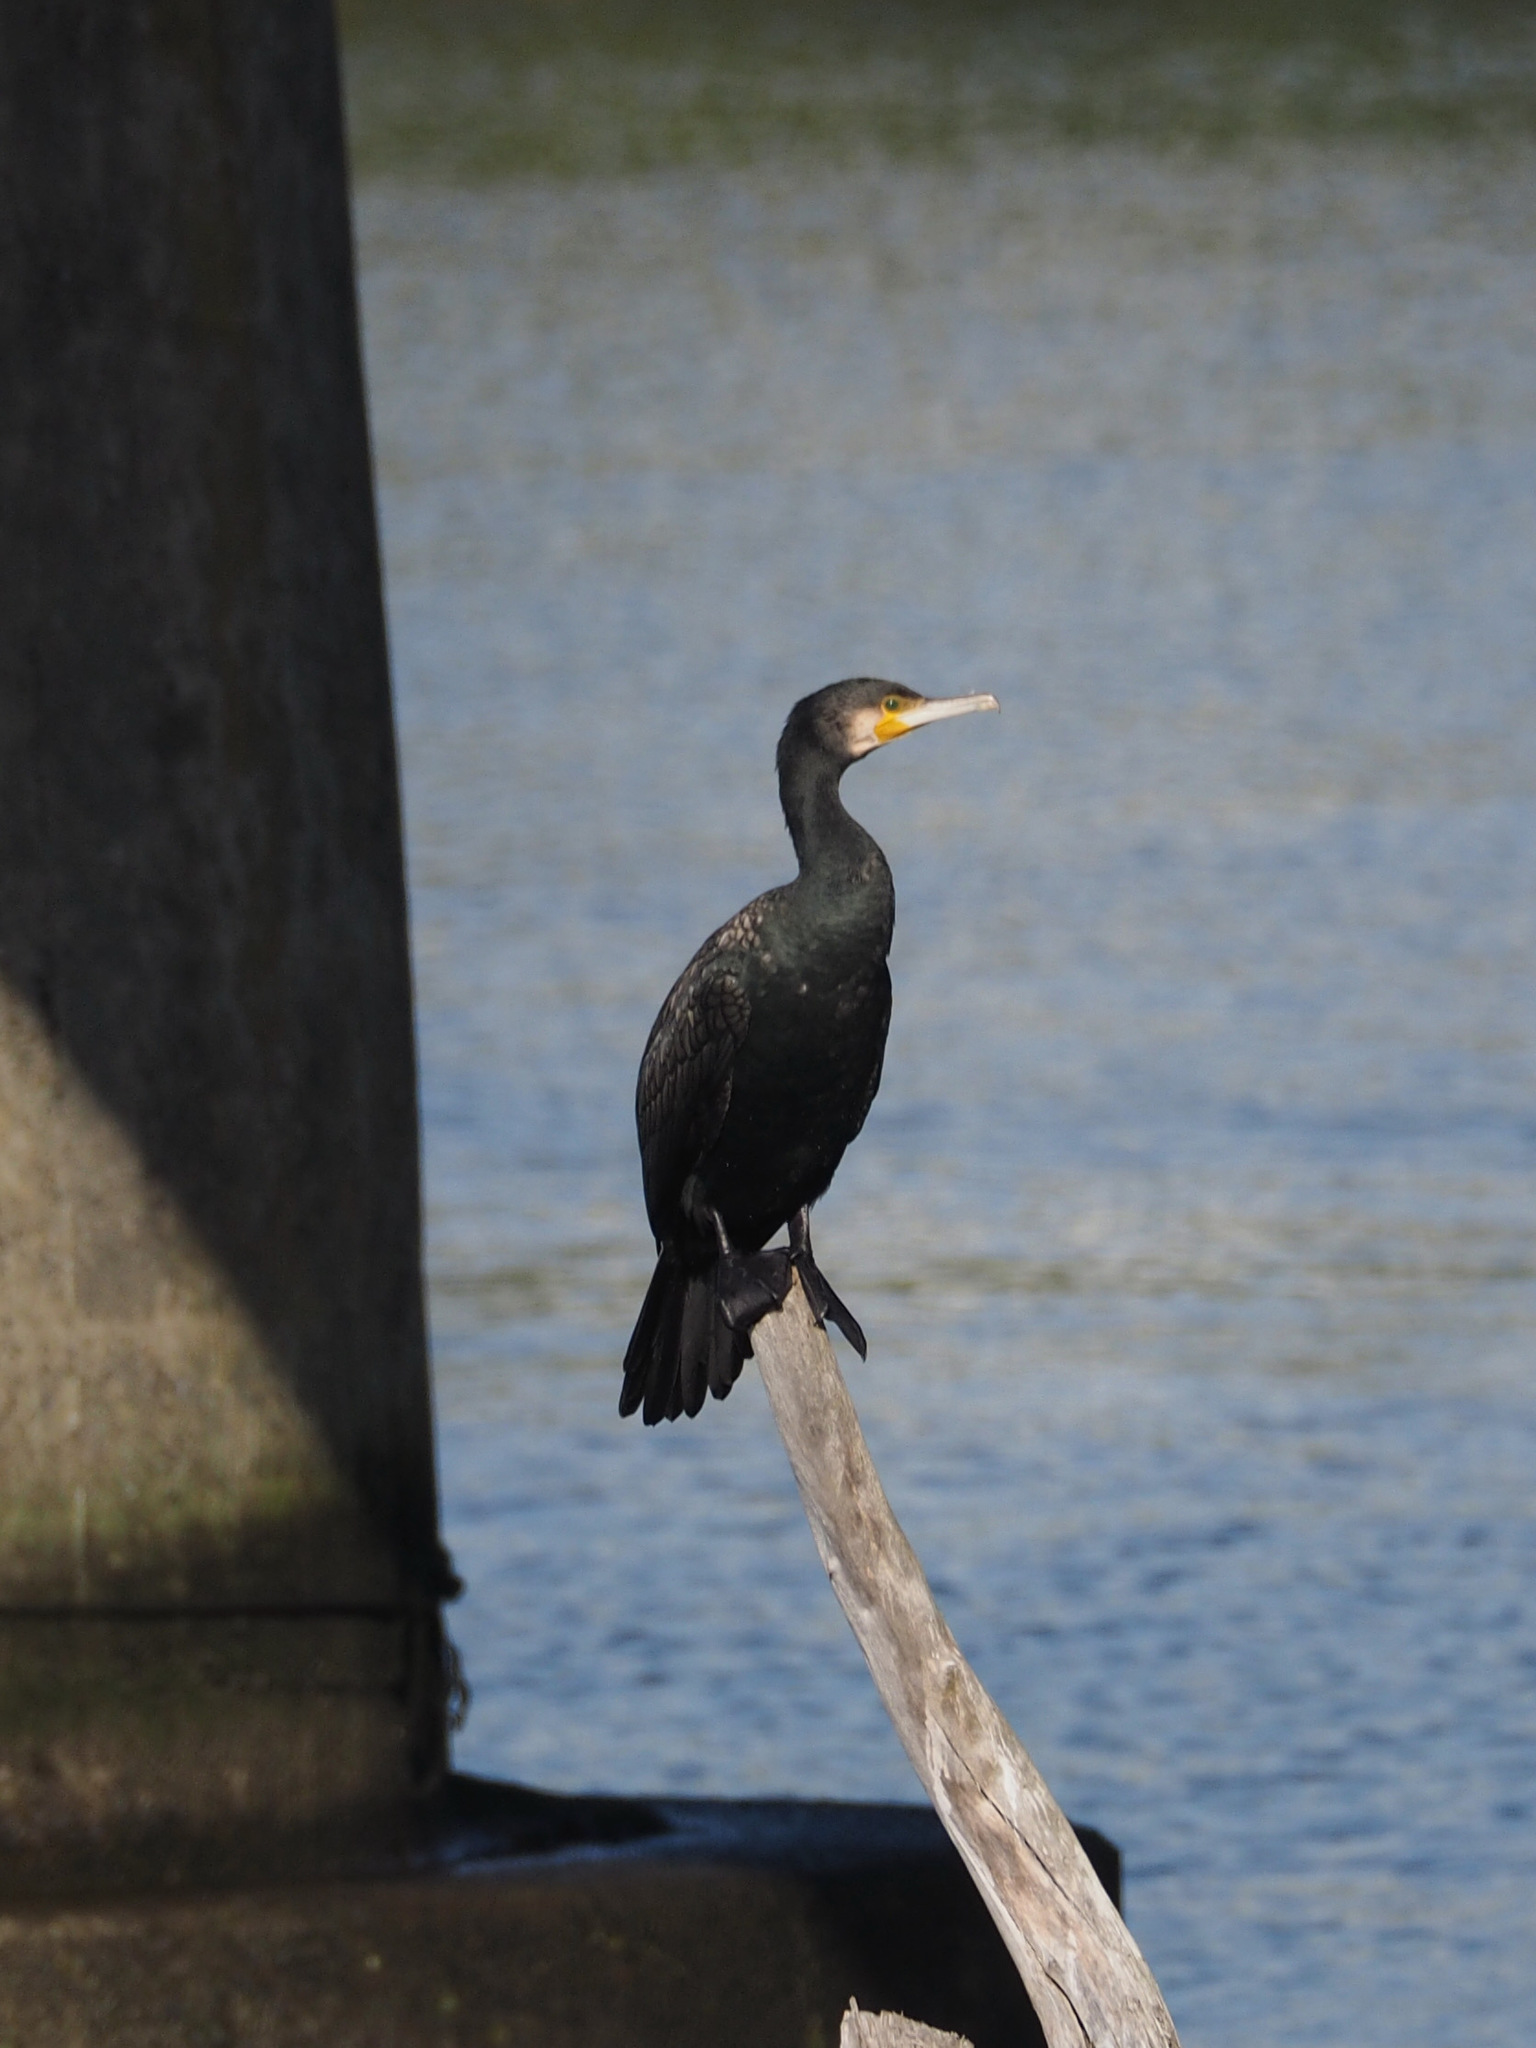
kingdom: Animalia
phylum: Chordata
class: Aves
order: Suliformes
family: Phalacrocoracidae
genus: Phalacrocorax
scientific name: Phalacrocorax carbo
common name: Great cormorant
